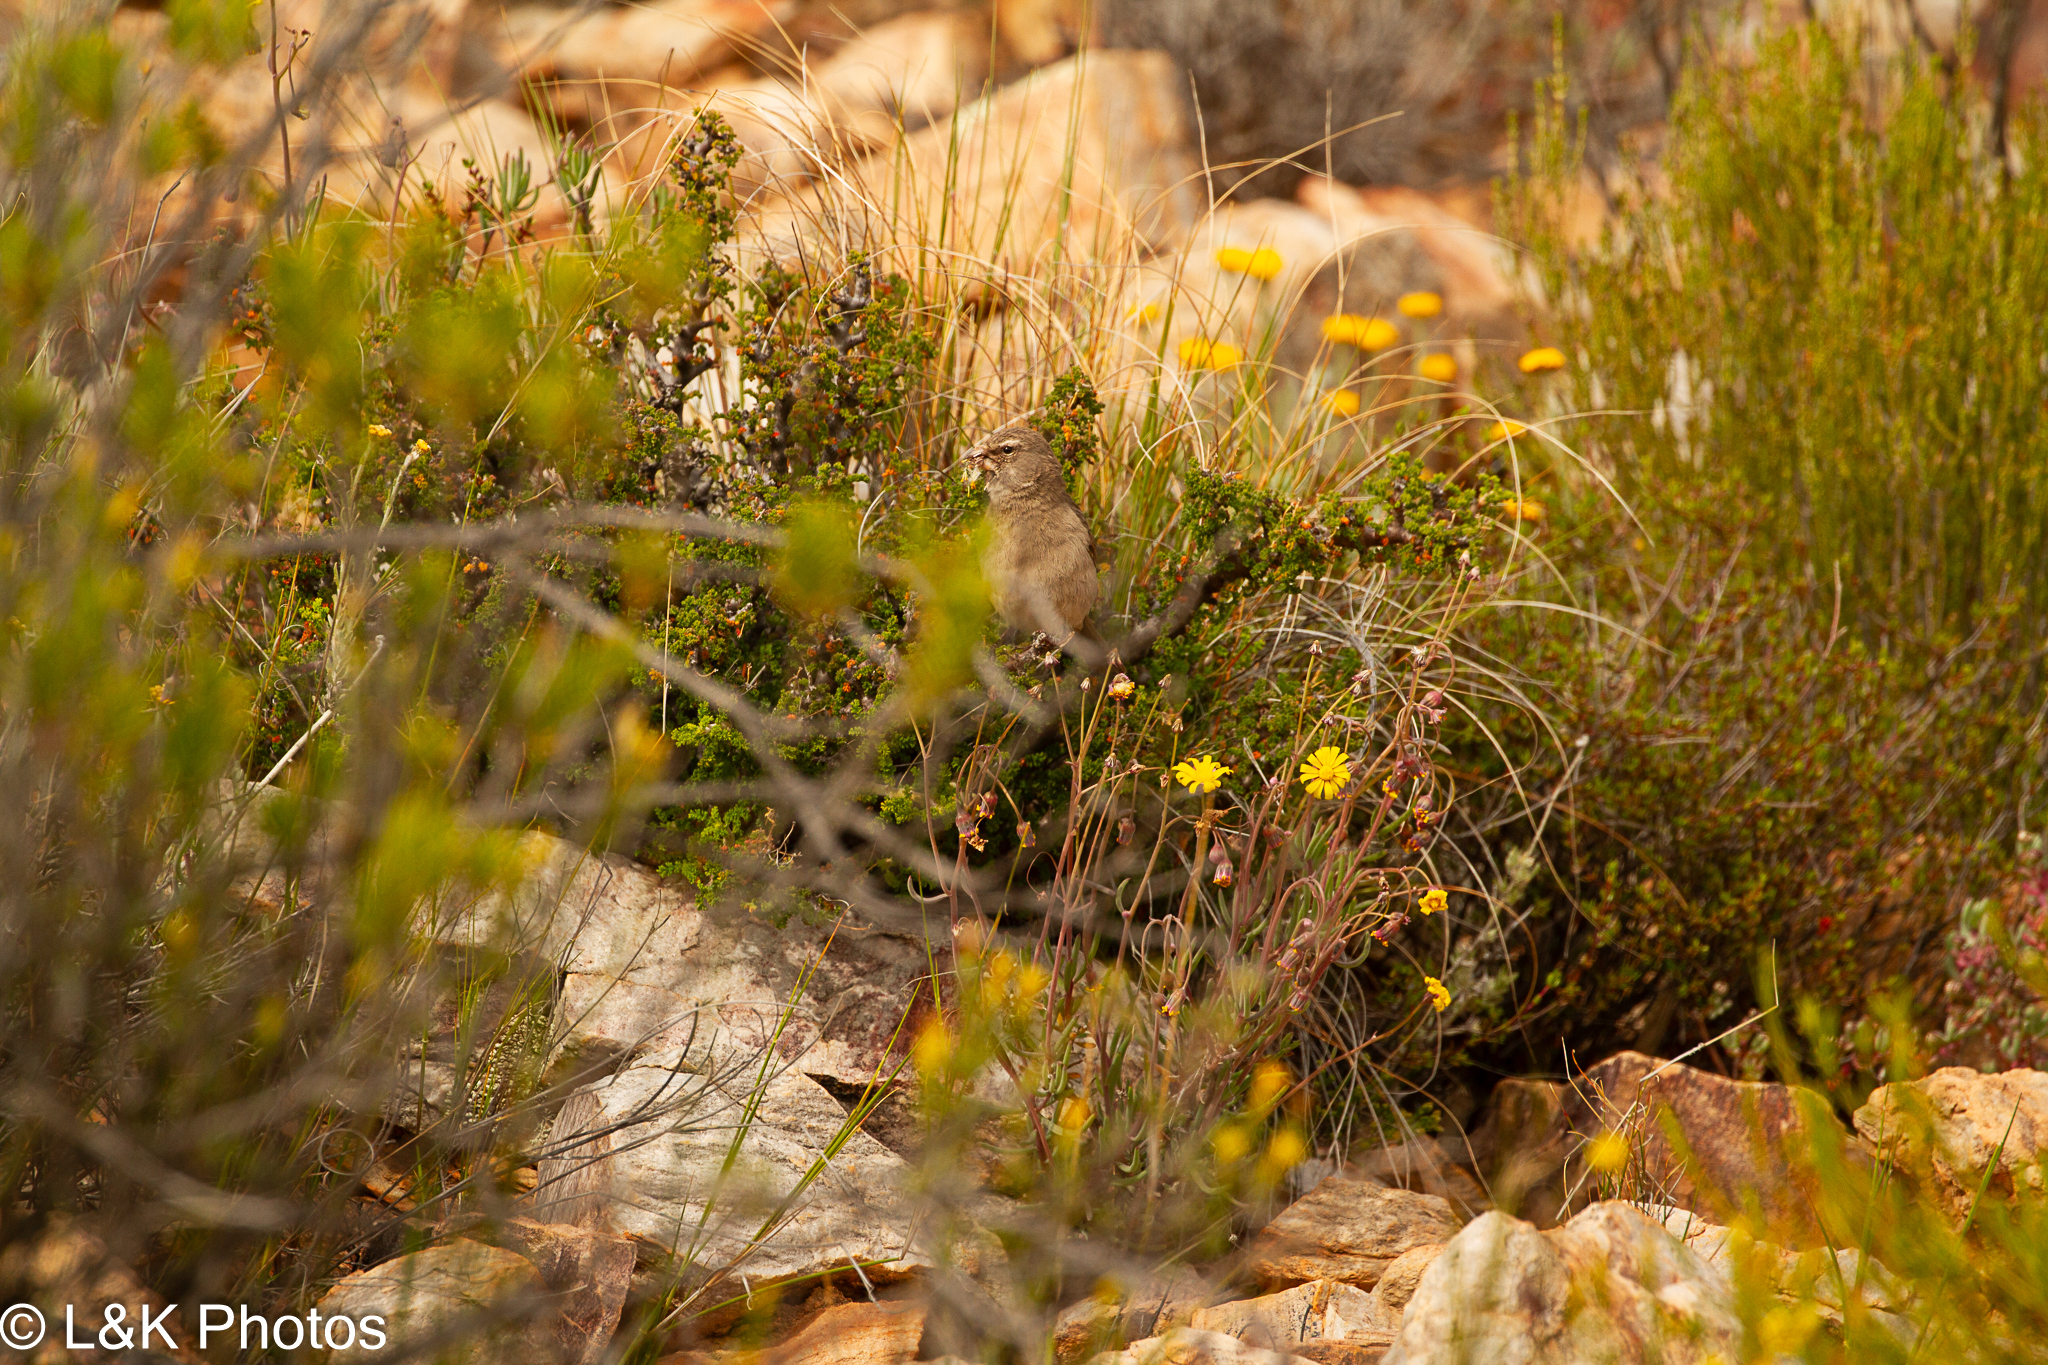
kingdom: Animalia
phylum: Chordata
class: Aves
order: Passeriformes
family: Fringillidae
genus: Crithagra
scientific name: Crithagra albogularis
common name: White-throated canary
